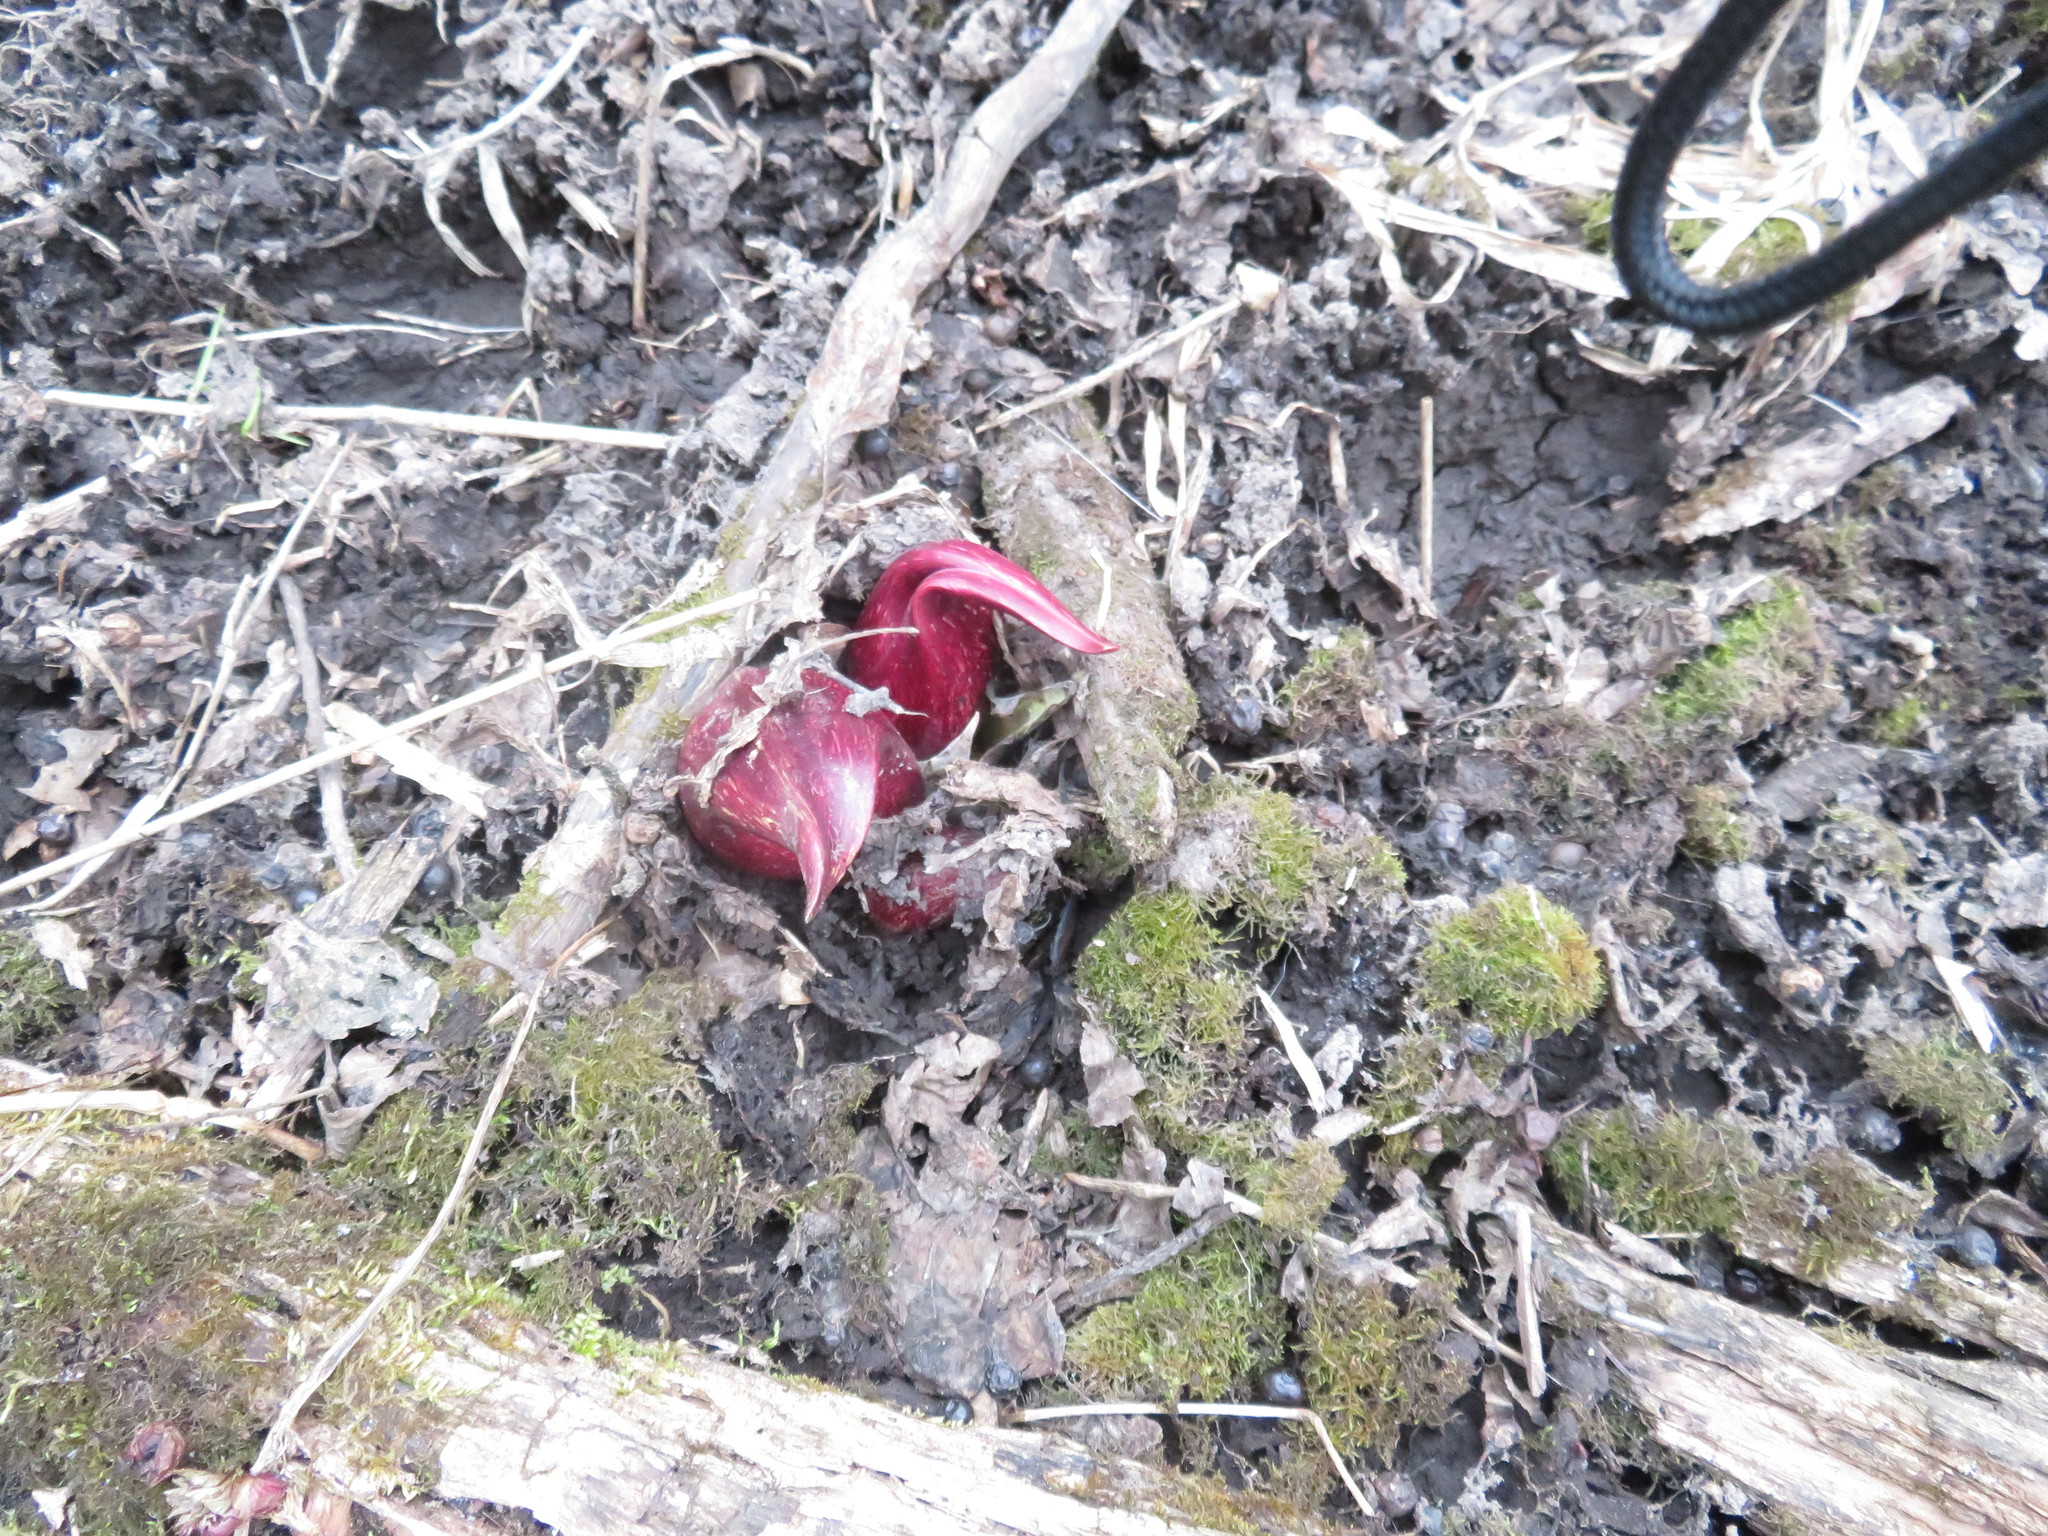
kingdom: Plantae
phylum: Tracheophyta
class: Liliopsida
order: Alismatales
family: Araceae
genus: Symplocarpus
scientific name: Symplocarpus foetidus
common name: Eastern skunk cabbage
